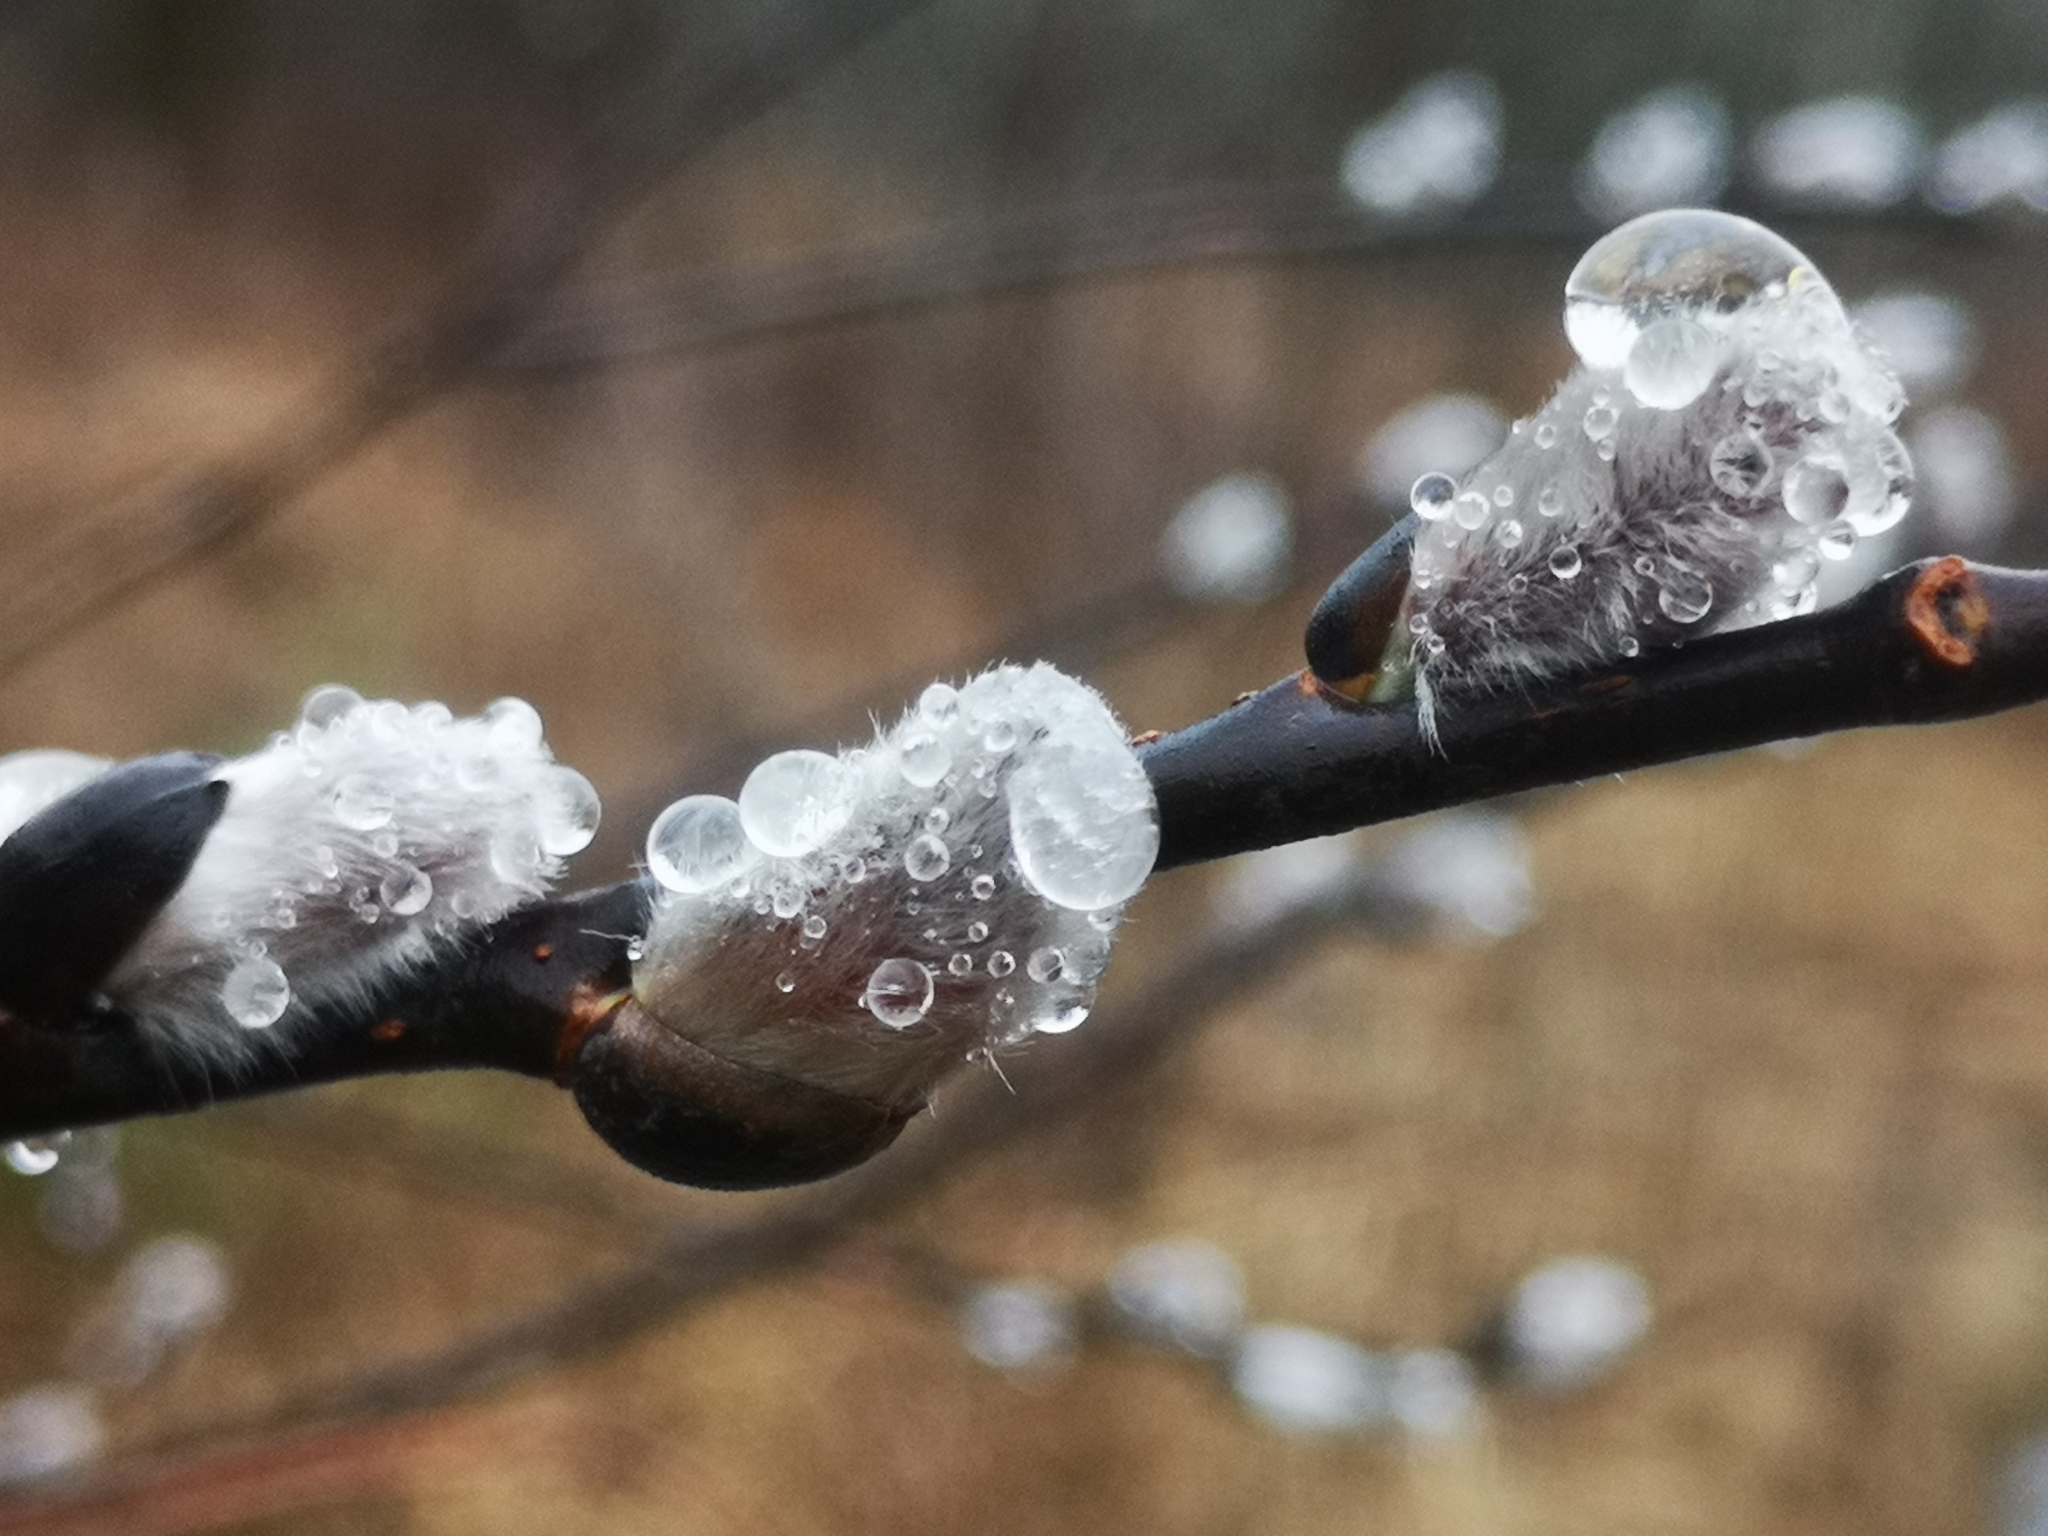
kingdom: Plantae
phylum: Tracheophyta
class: Magnoliopsida
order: Malpighiales
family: Salicaceae
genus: Salix
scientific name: Salix discolor
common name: Glaucous willow
